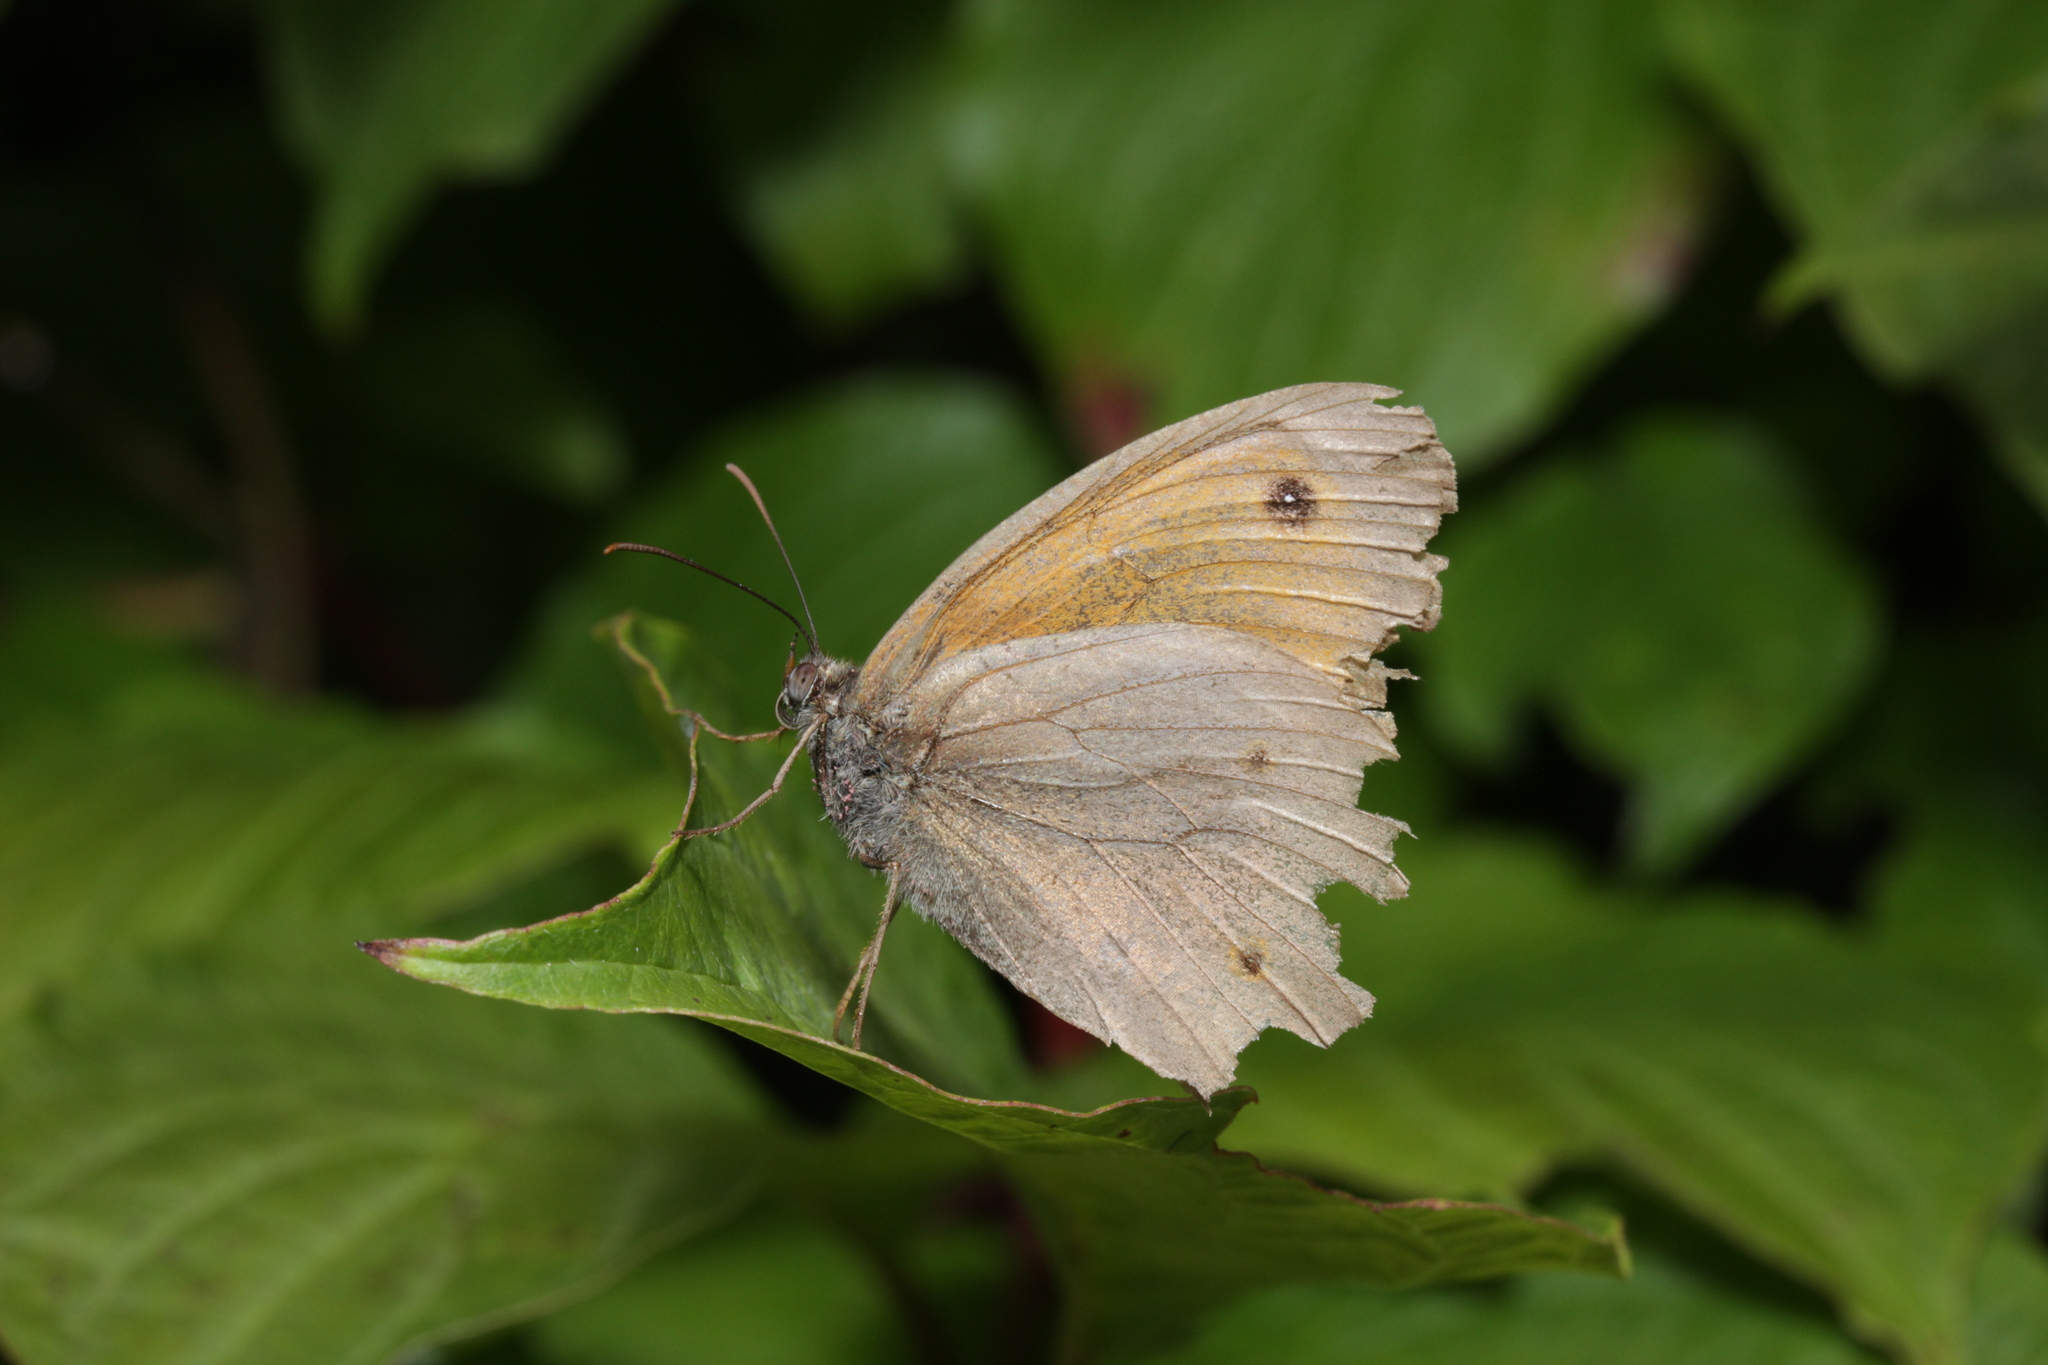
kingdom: Animalia
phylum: Arthropoda
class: Insecta
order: Lepidoptera
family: Nymphalidae
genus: Maniola
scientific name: Maniola jurtina
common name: Meadow brown
